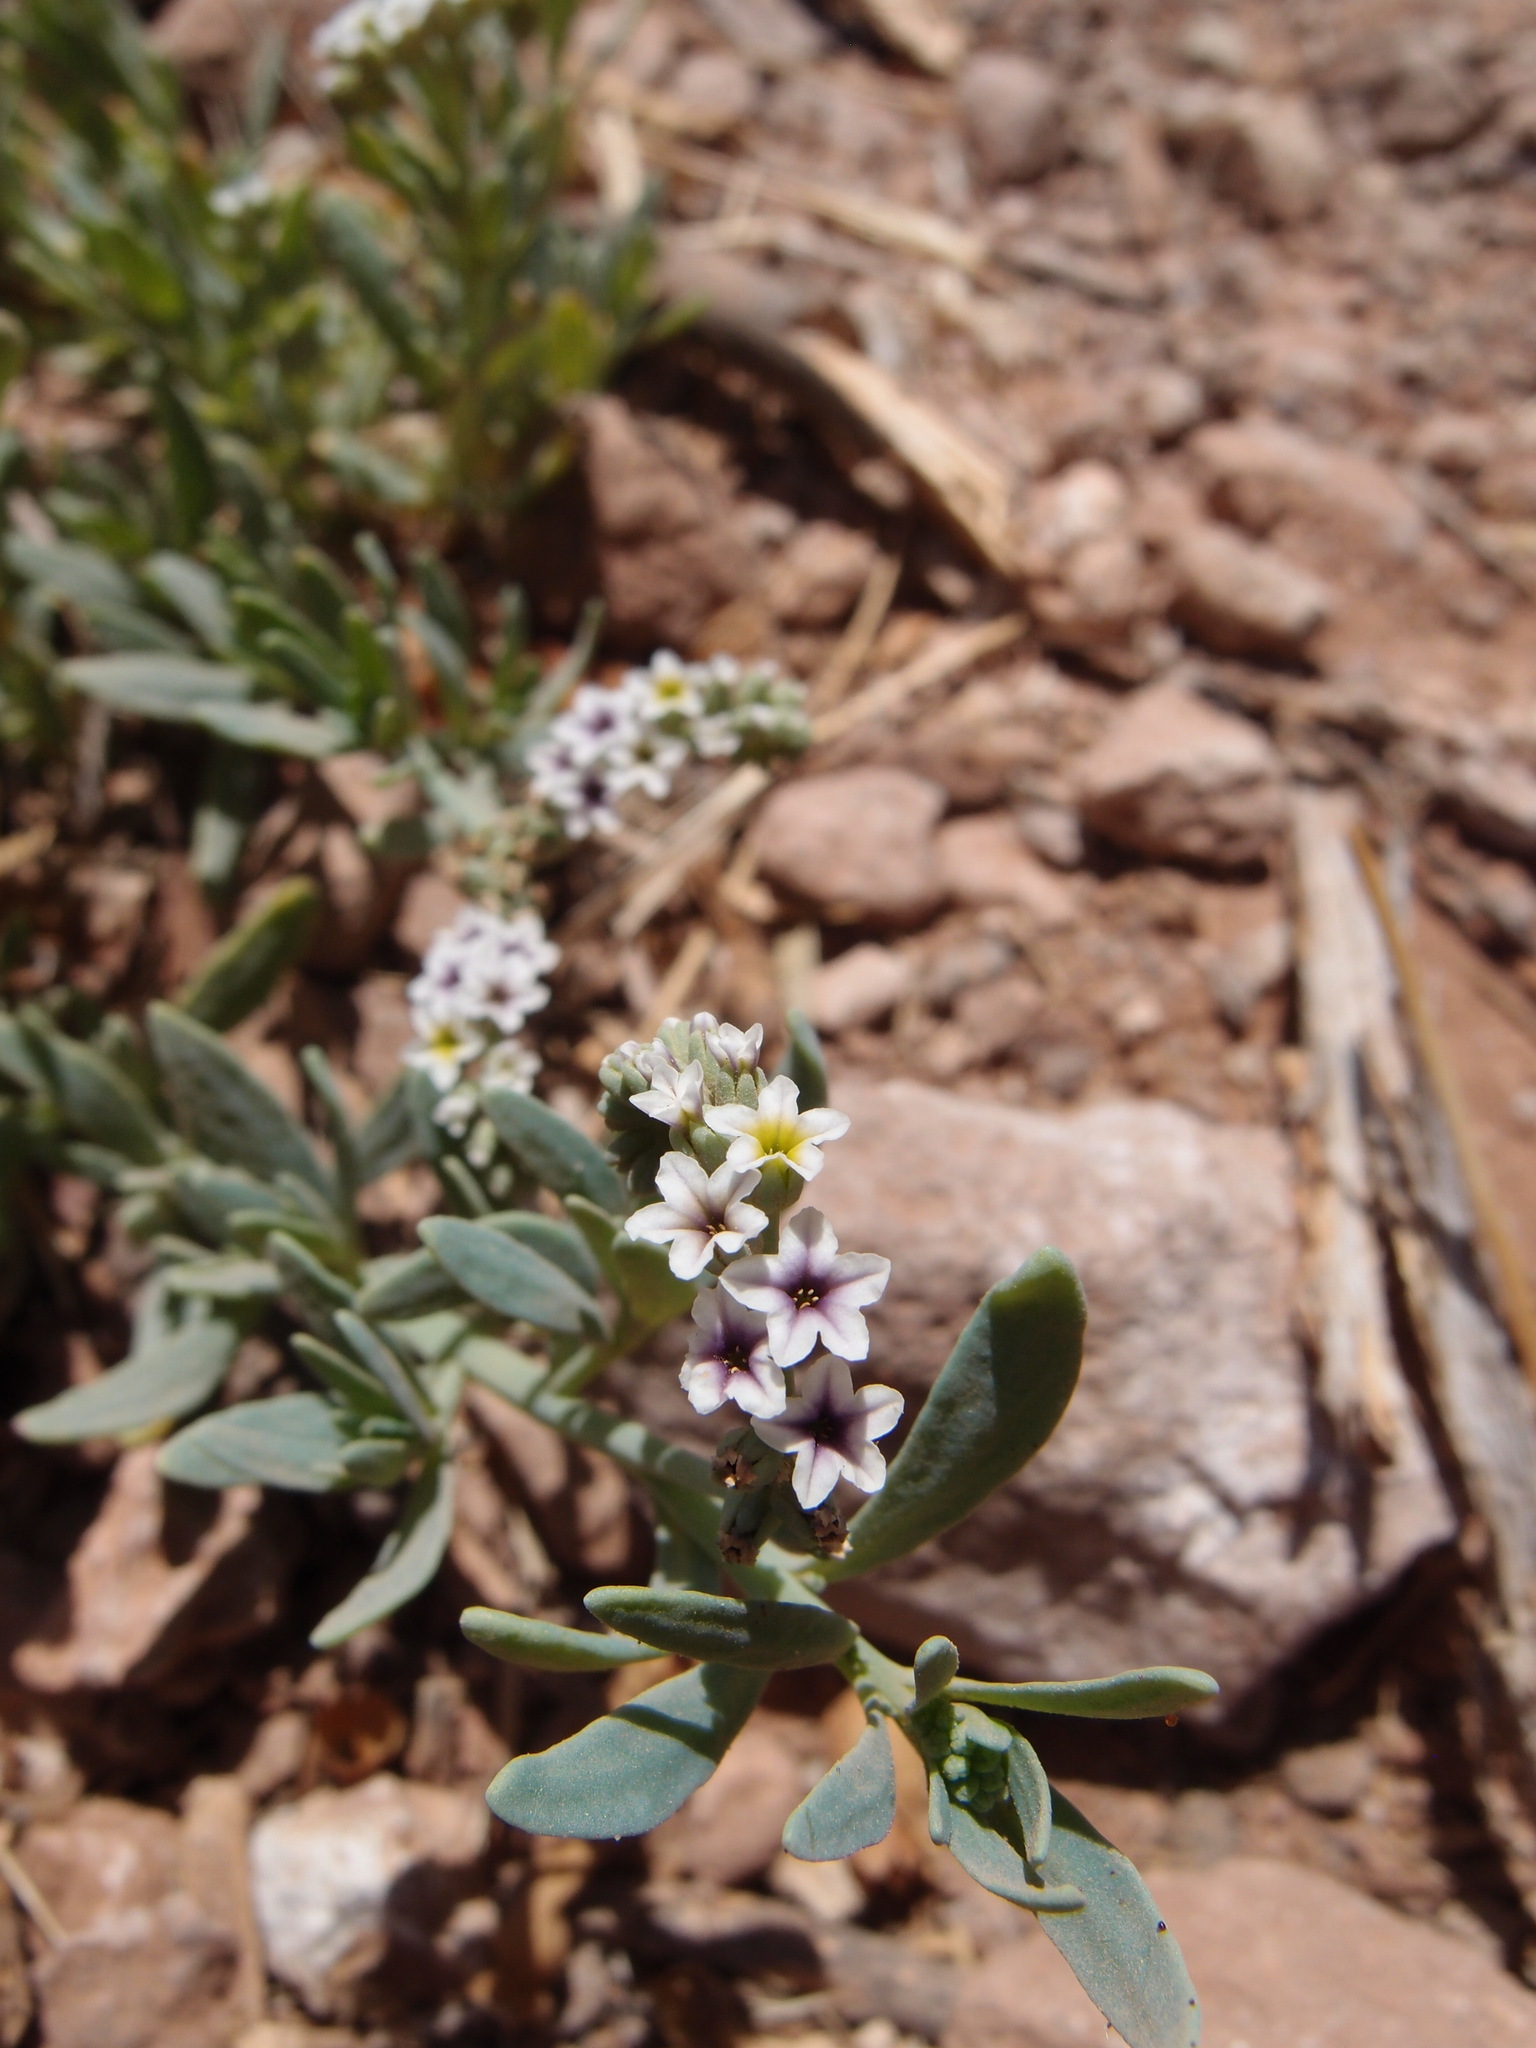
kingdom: Plantae
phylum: Tracheophyta
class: Magnoliopsida
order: Boraginales
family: Heliotropiaceae
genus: Heliotropium
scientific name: Heliotropium curassavicum
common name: Seaside heliotrope
